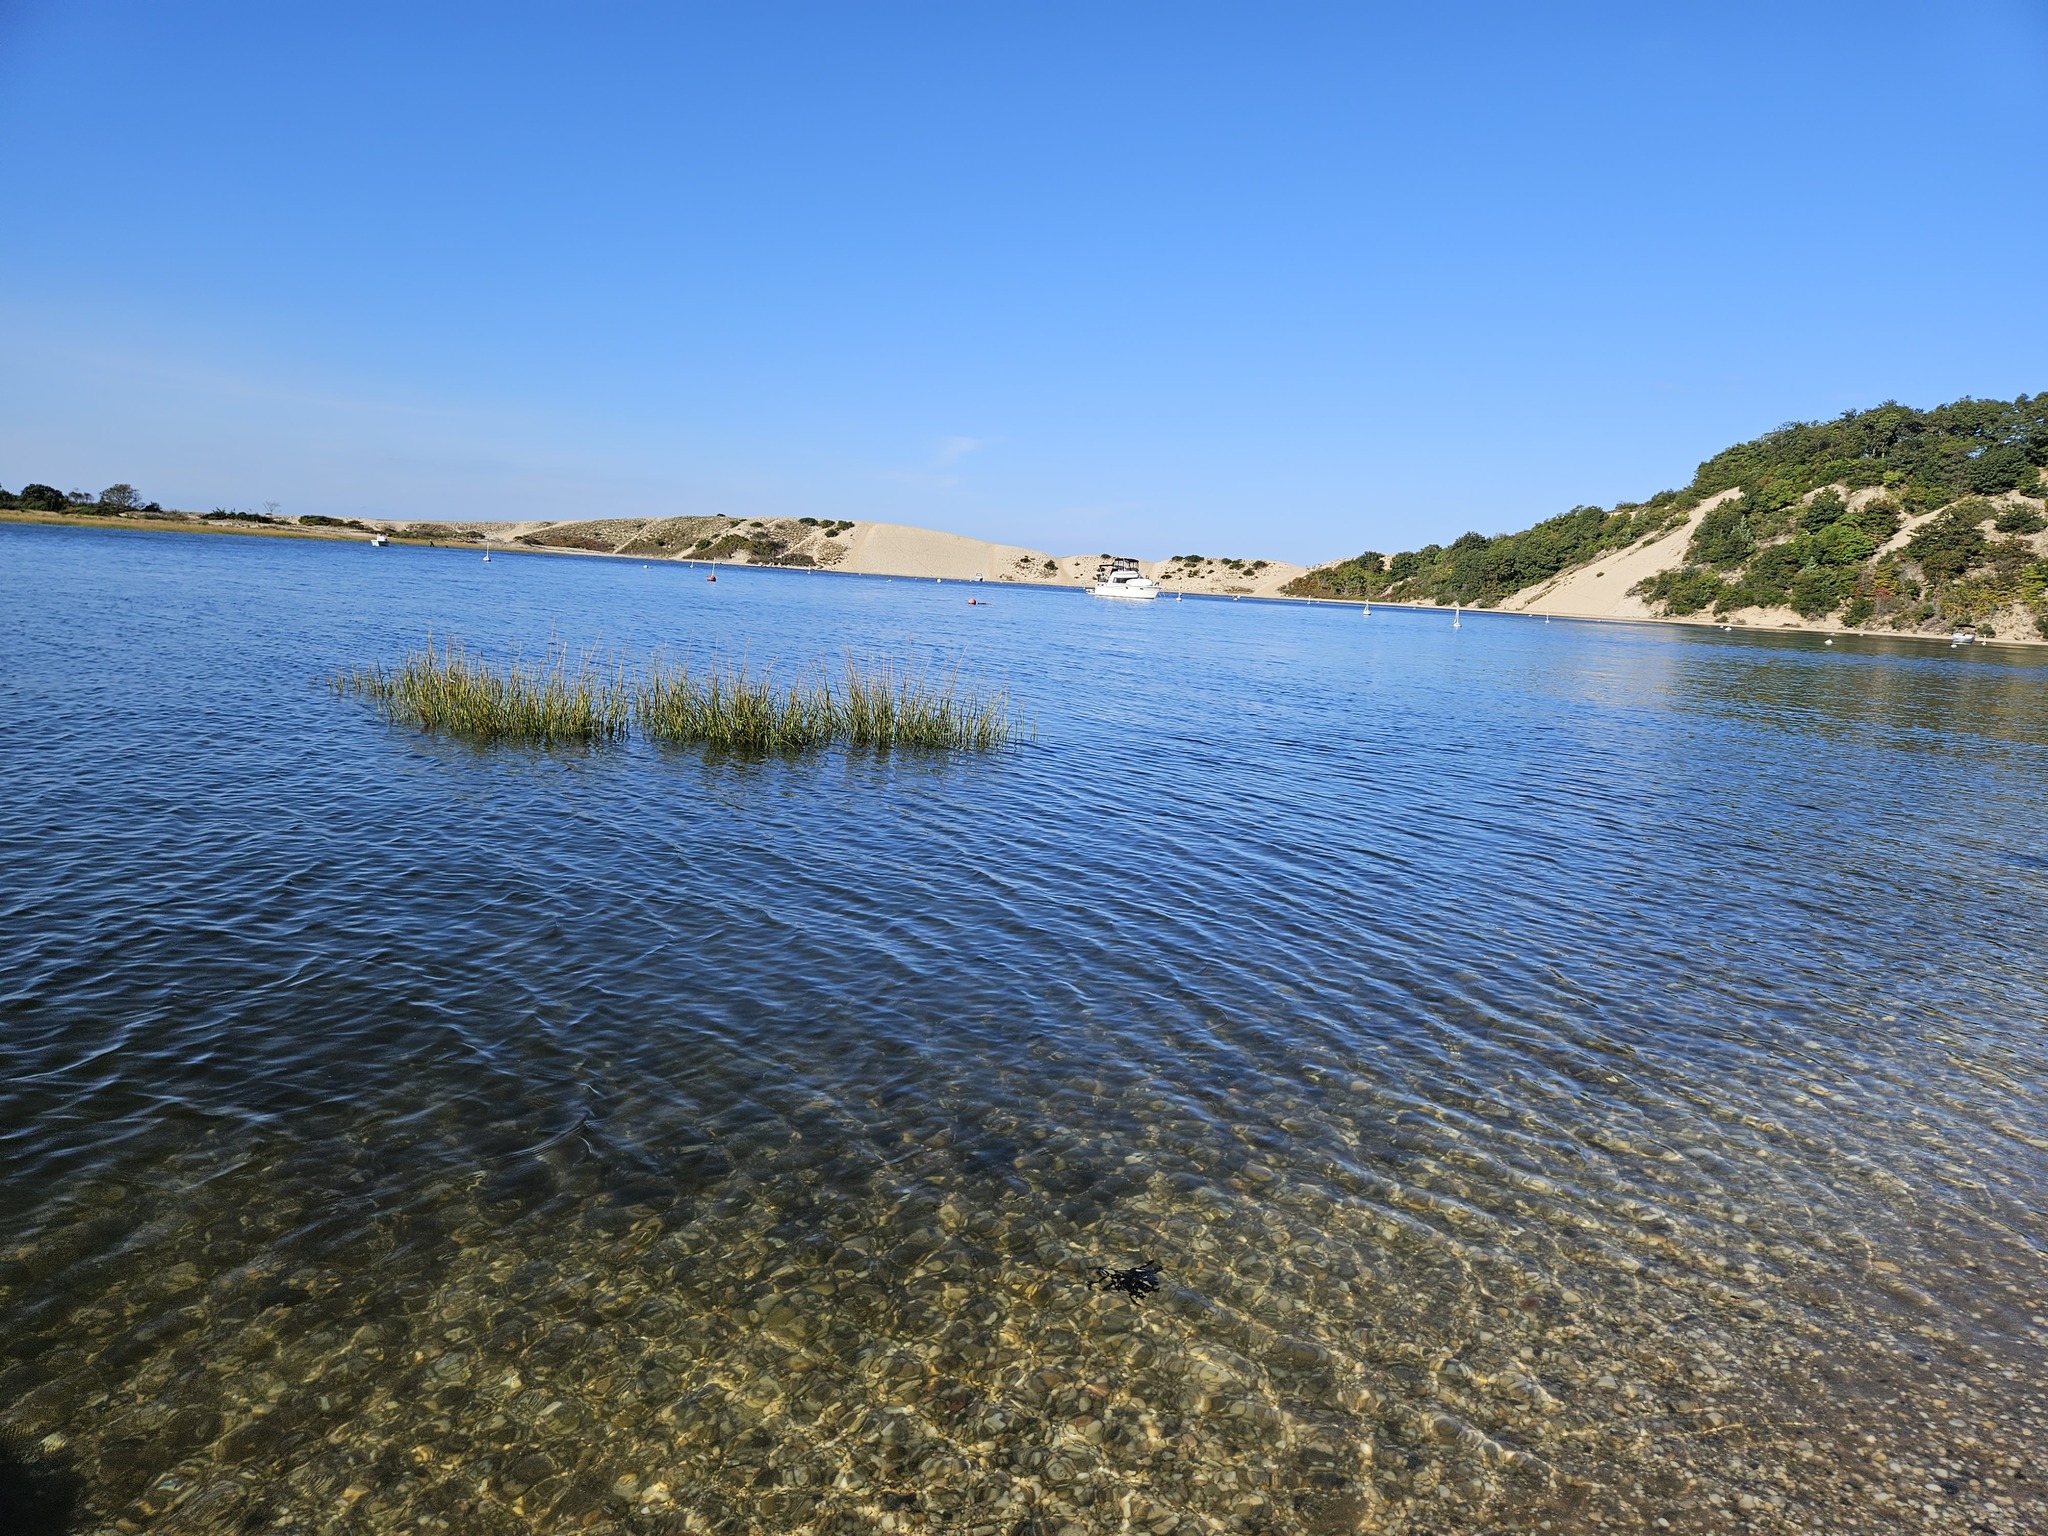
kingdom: Plantae
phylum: Tracheophyta
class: Liliopsida
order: Poales
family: Poaceae
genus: Sporobolus
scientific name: Sporobolus alterniflorus
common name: Atlantic cordgrass
